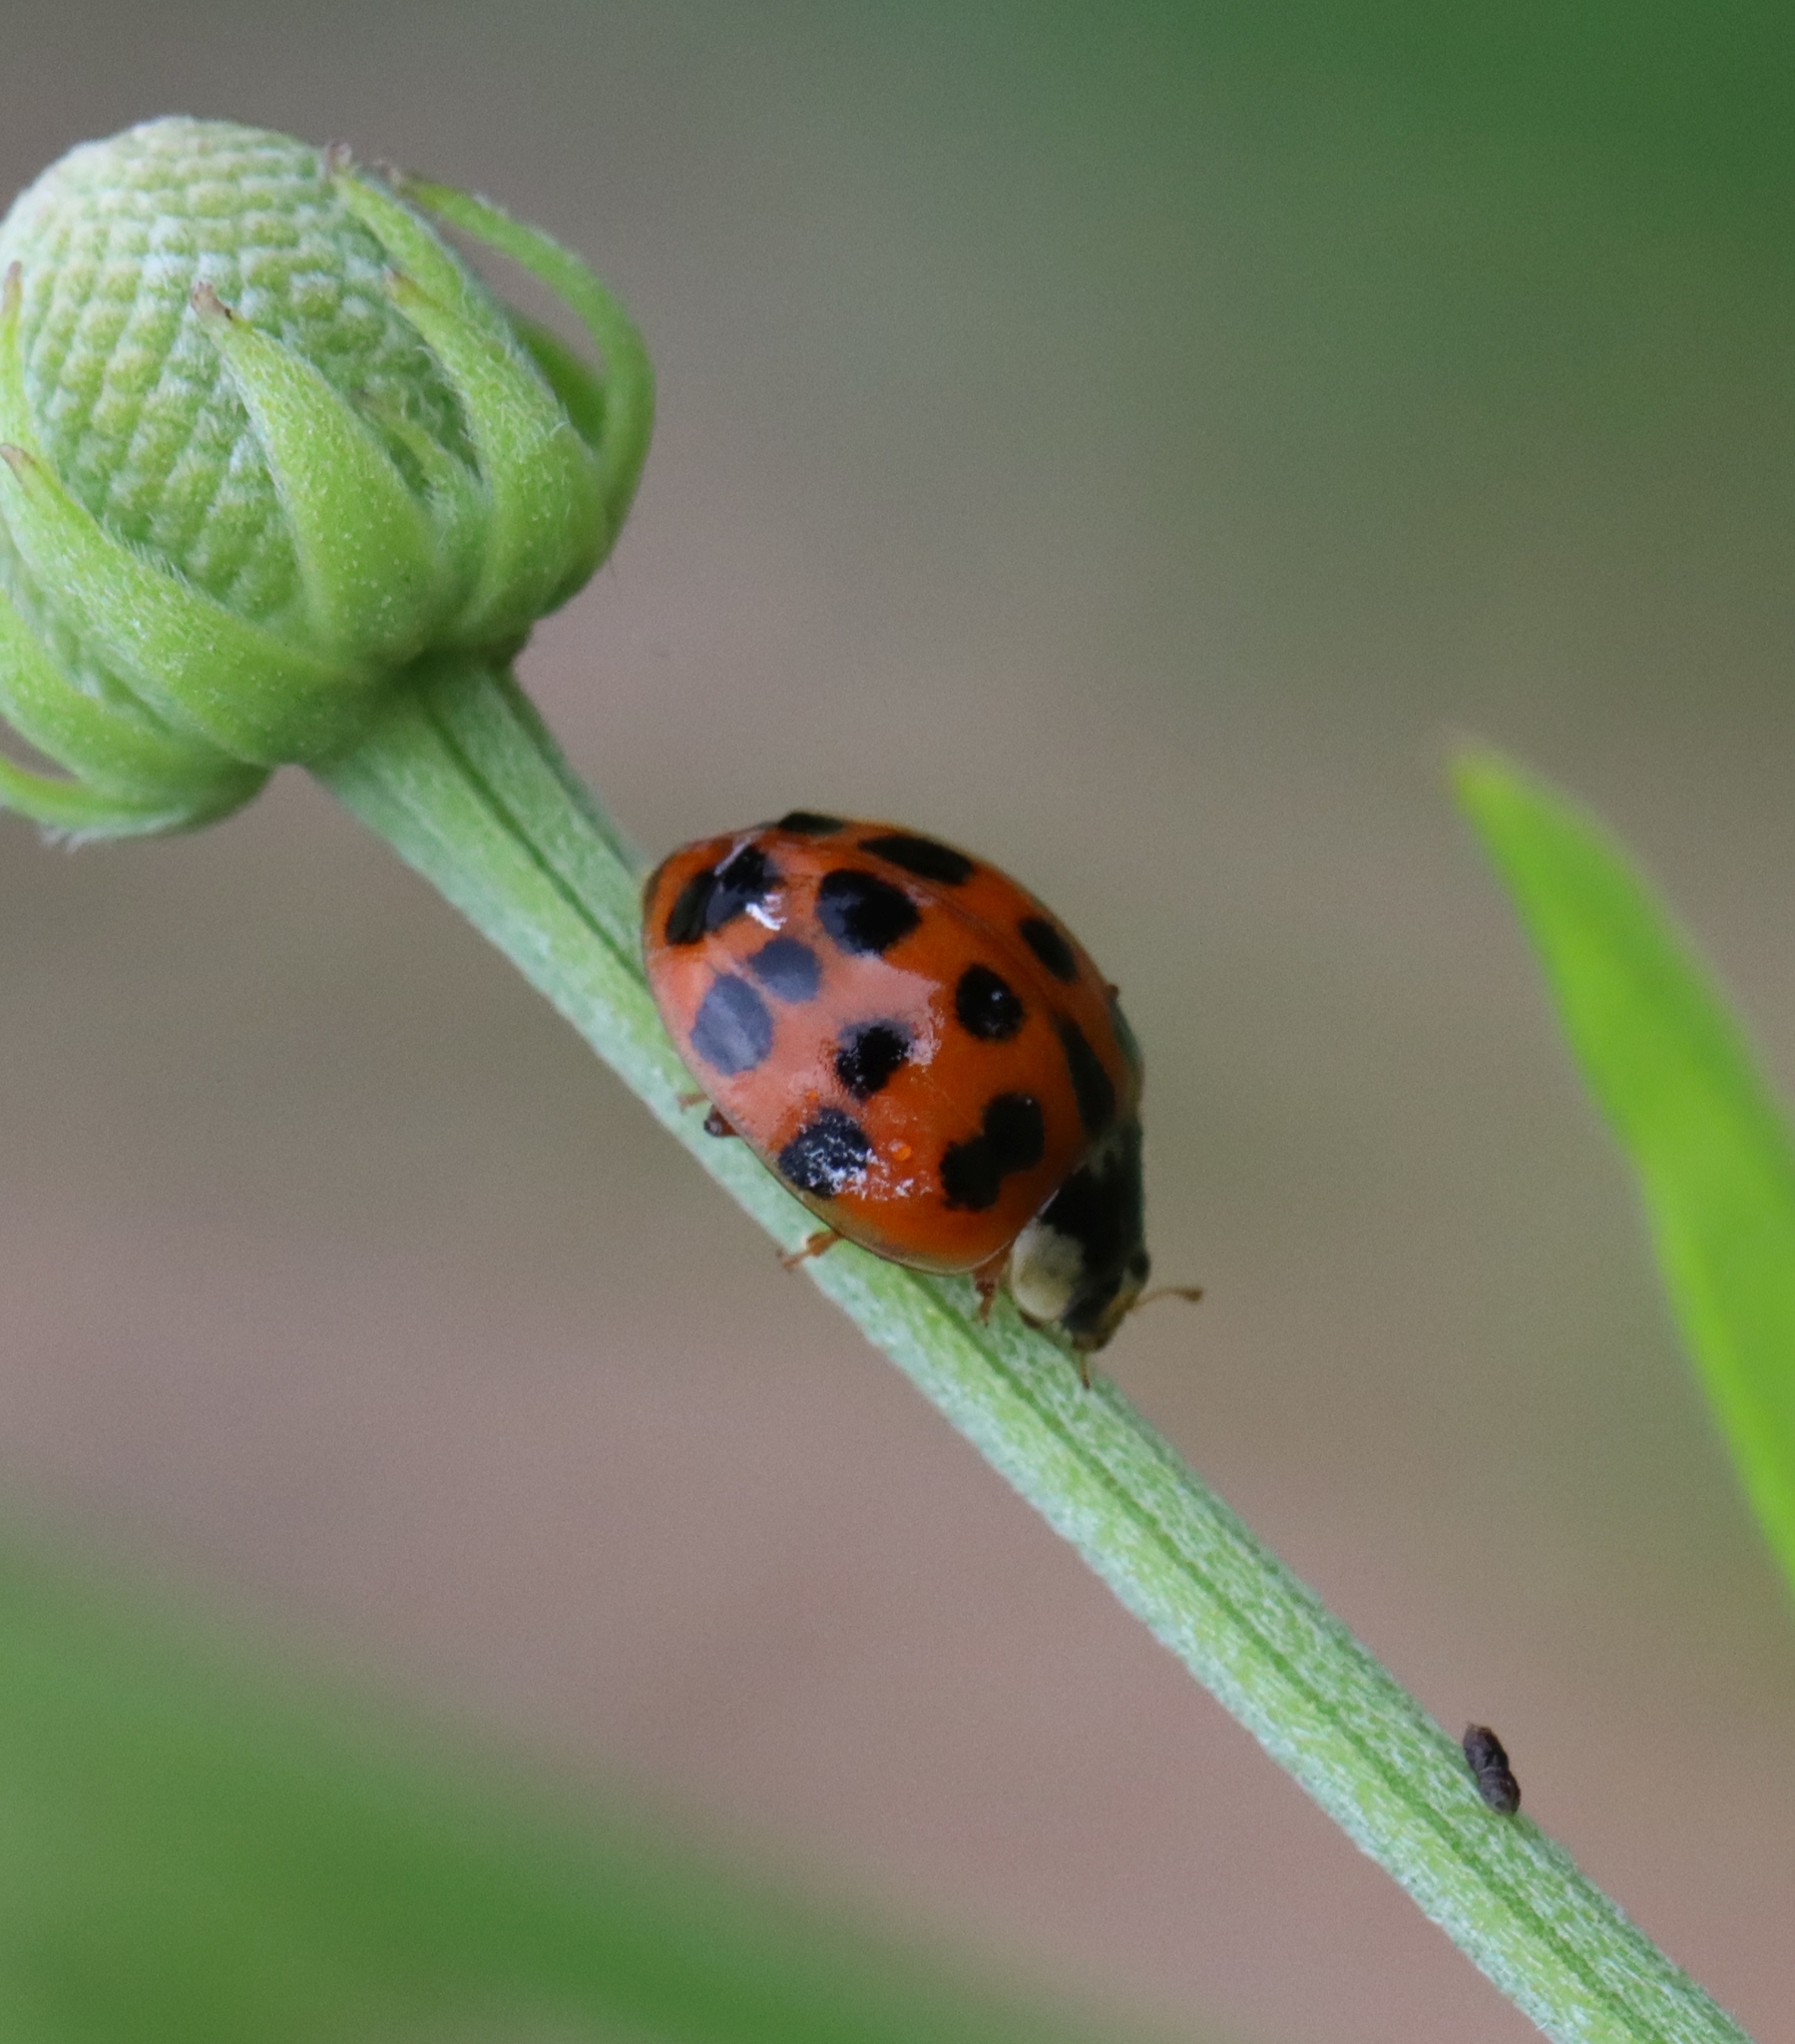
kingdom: Animalia
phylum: Arthropoda
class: Insecta
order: Coleoptera
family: Coccinellidae
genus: Harmonia
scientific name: Harmonia axyridis
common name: Harlequin ladybird
